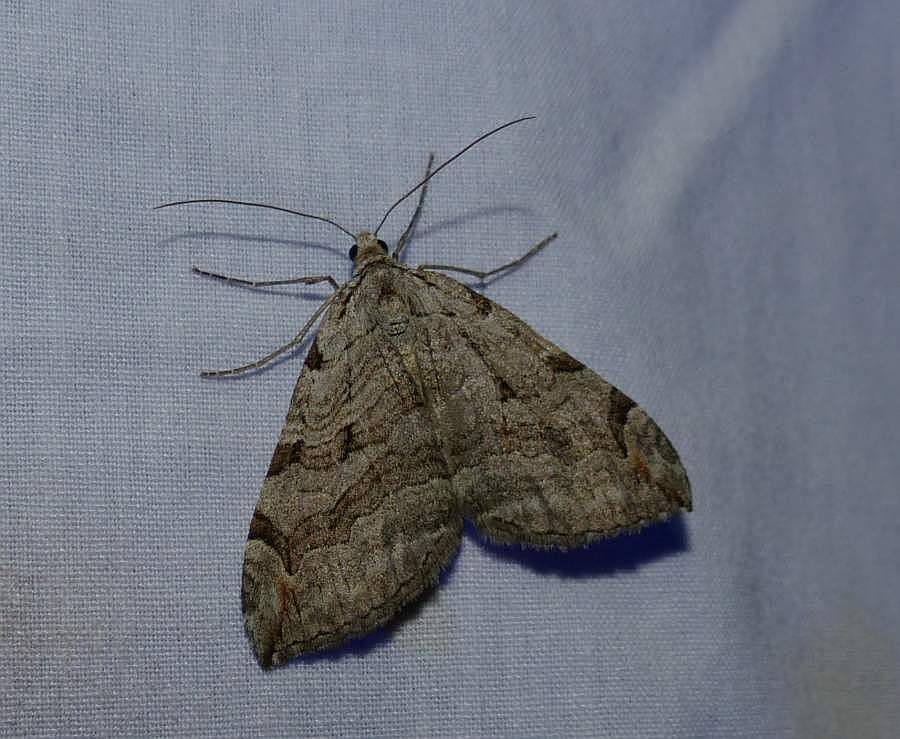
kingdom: Animalia
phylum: Arthropoda
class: Insecta
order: Lepidoptera
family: Geometridae
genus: Aplocera
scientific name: Aplocera plagiata
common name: Treble-bar
